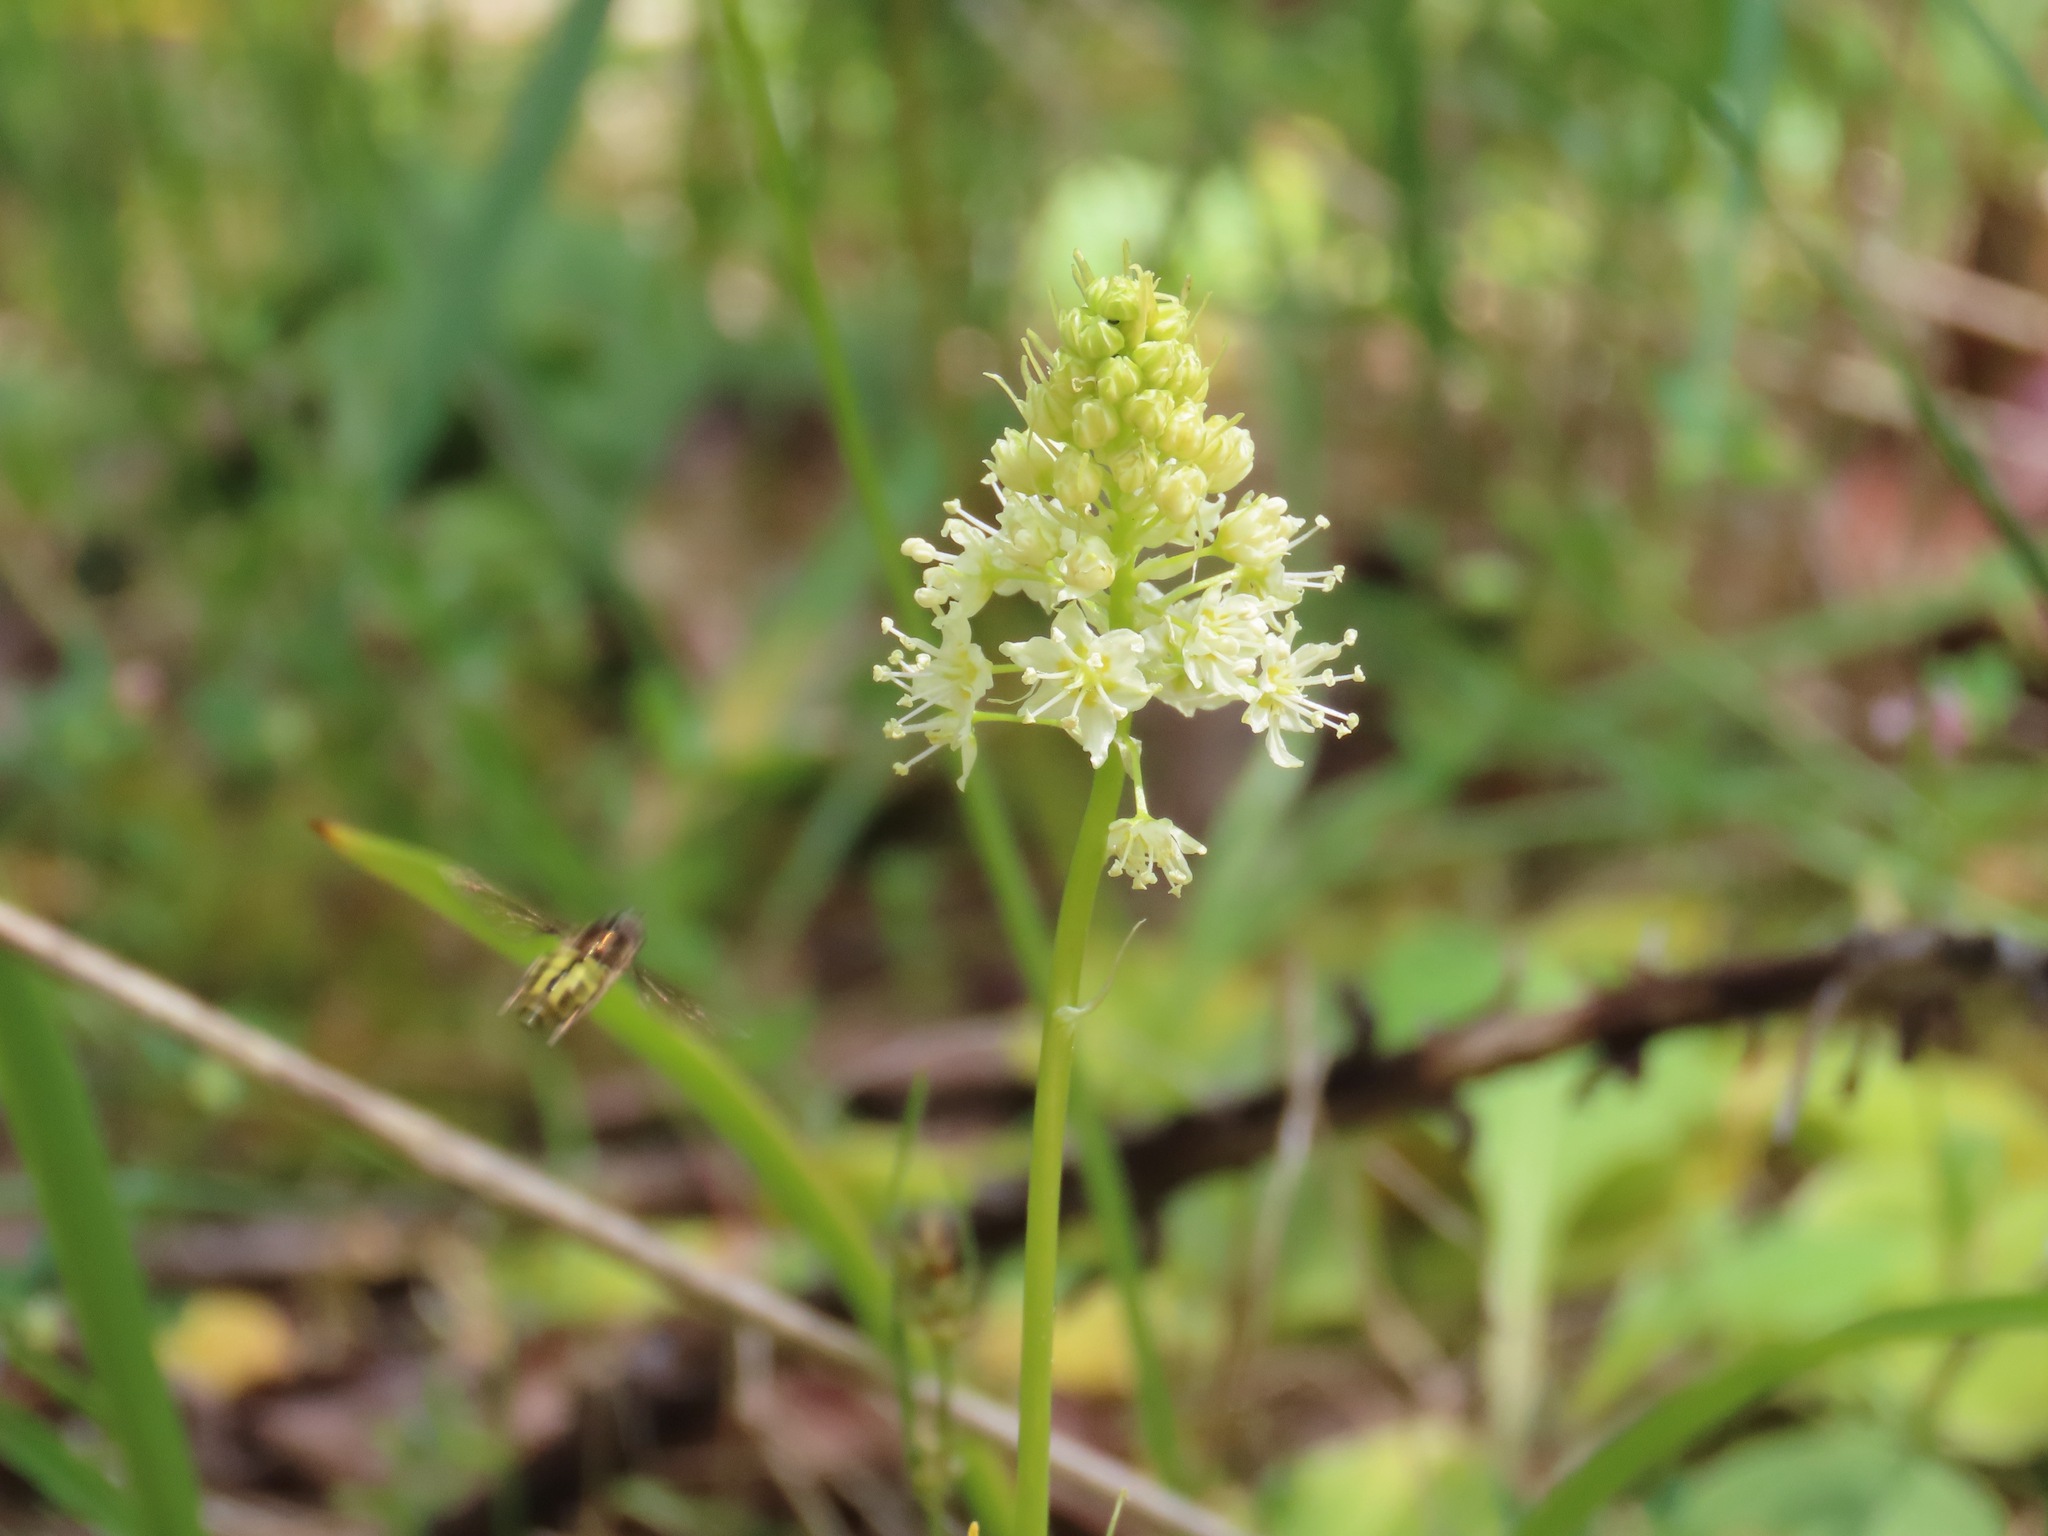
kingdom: Plantae
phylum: Tracheophyta
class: Liliopsida
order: Liliales
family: Melanthiaceae
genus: Toxicoscordion
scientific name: Toxicoscordion venenosum
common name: Meadow death camas
